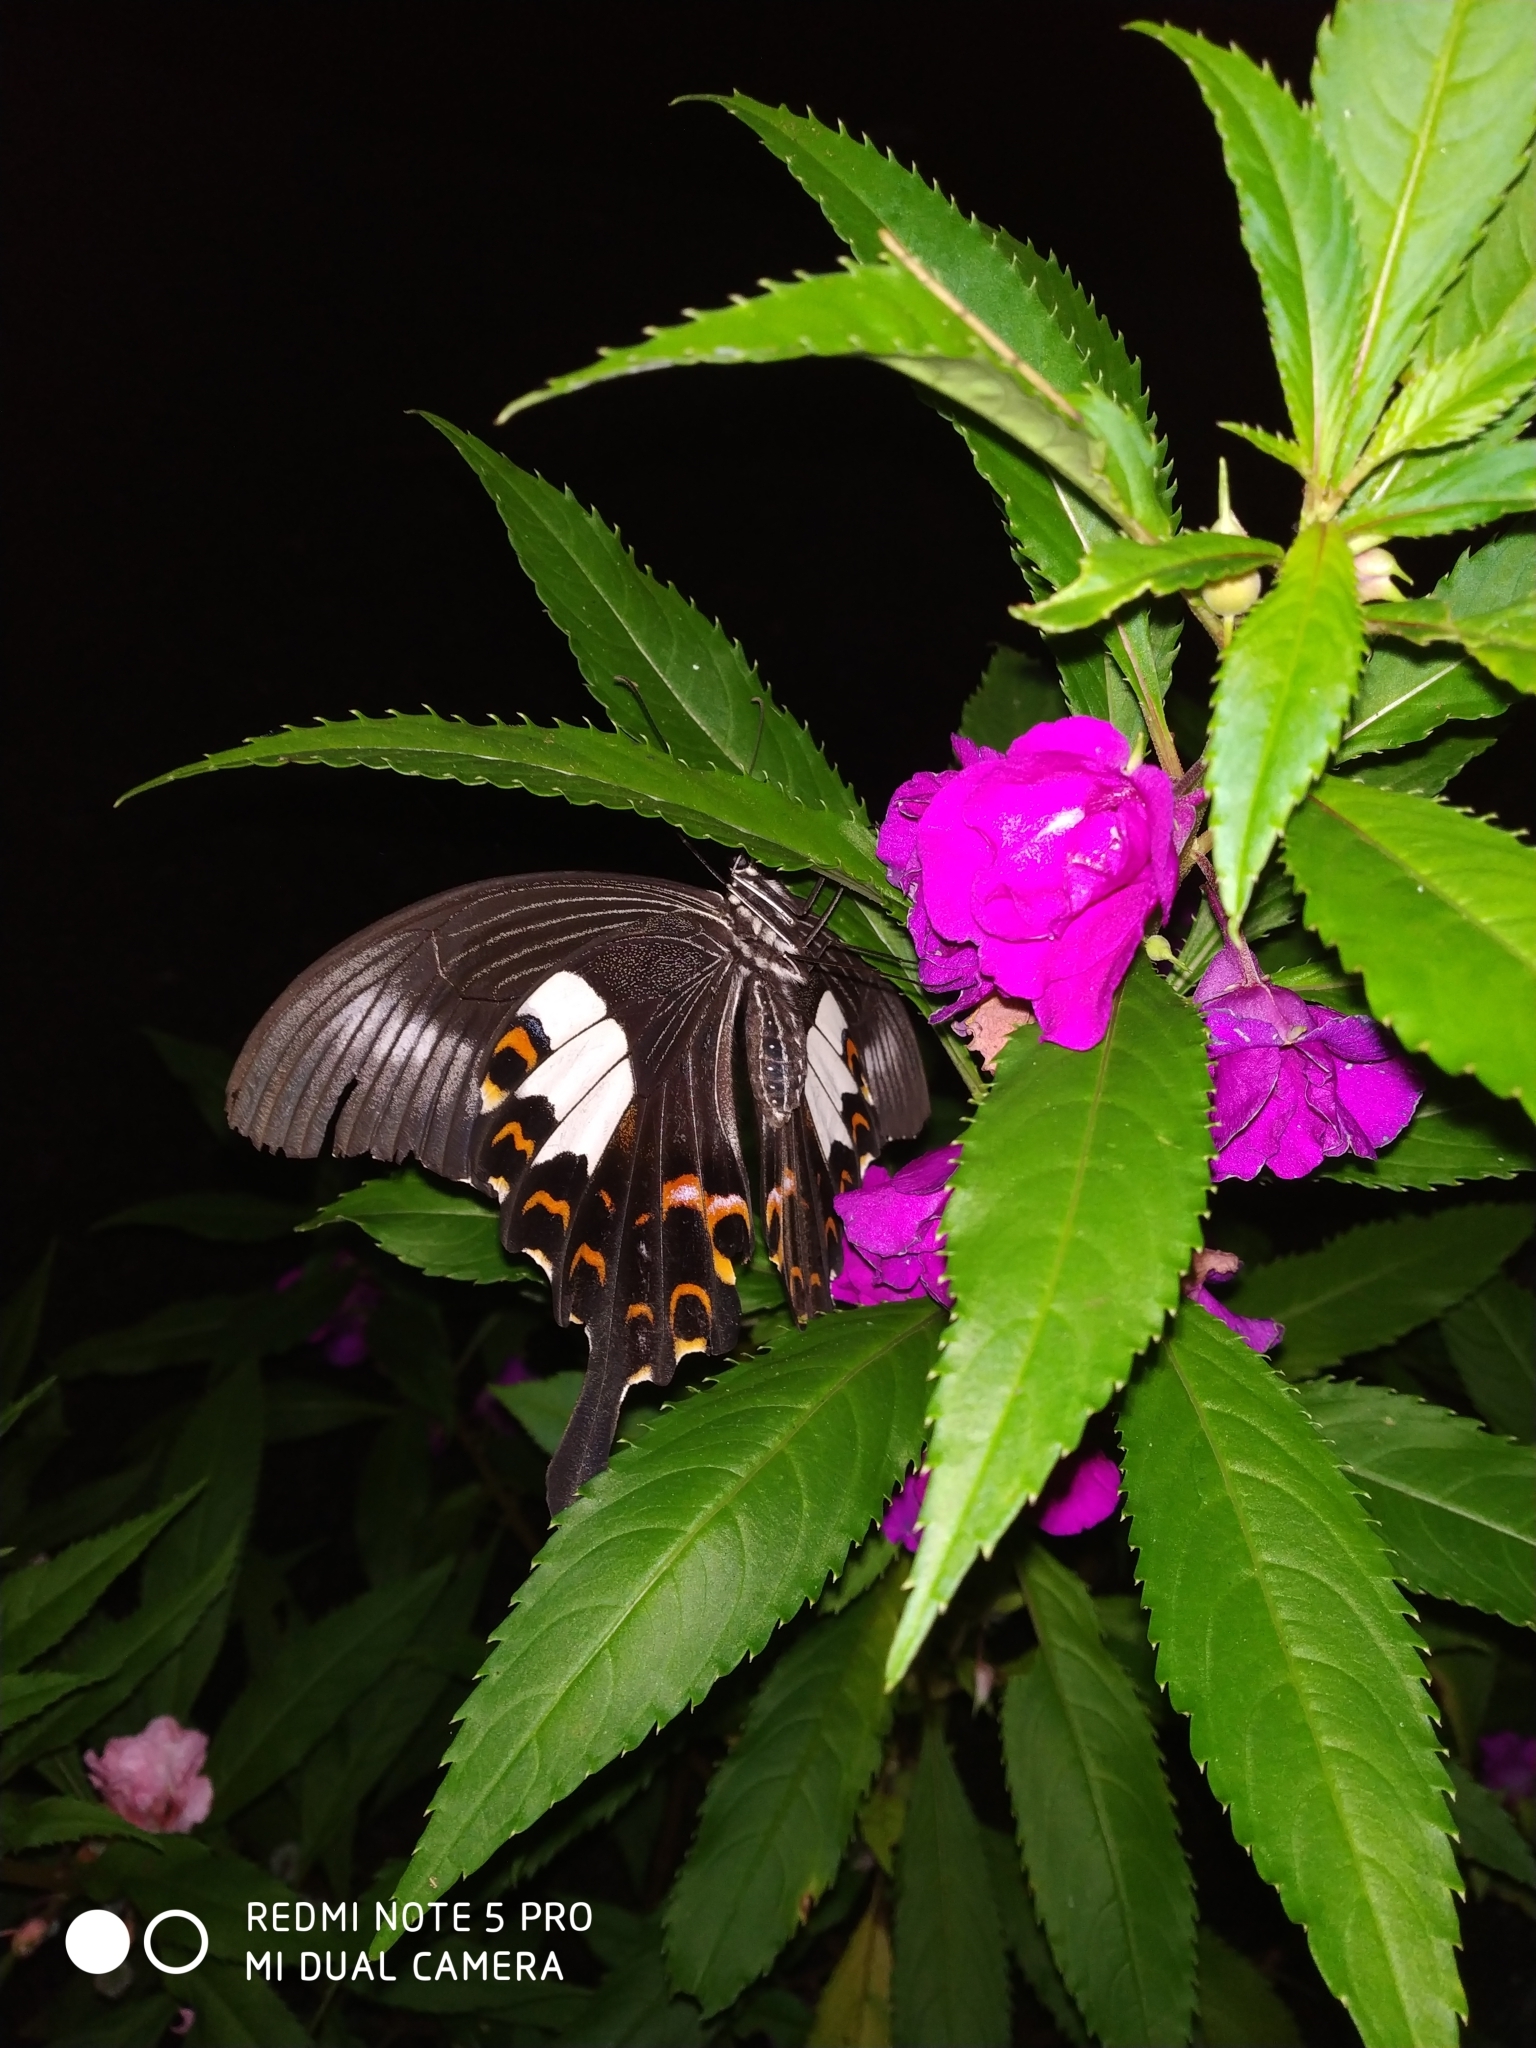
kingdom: Animalia
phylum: Arthropoda
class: Insecta
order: Lepidoptera
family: Papilionidae
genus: Papilio
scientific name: Papilio helenus
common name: Red helen
